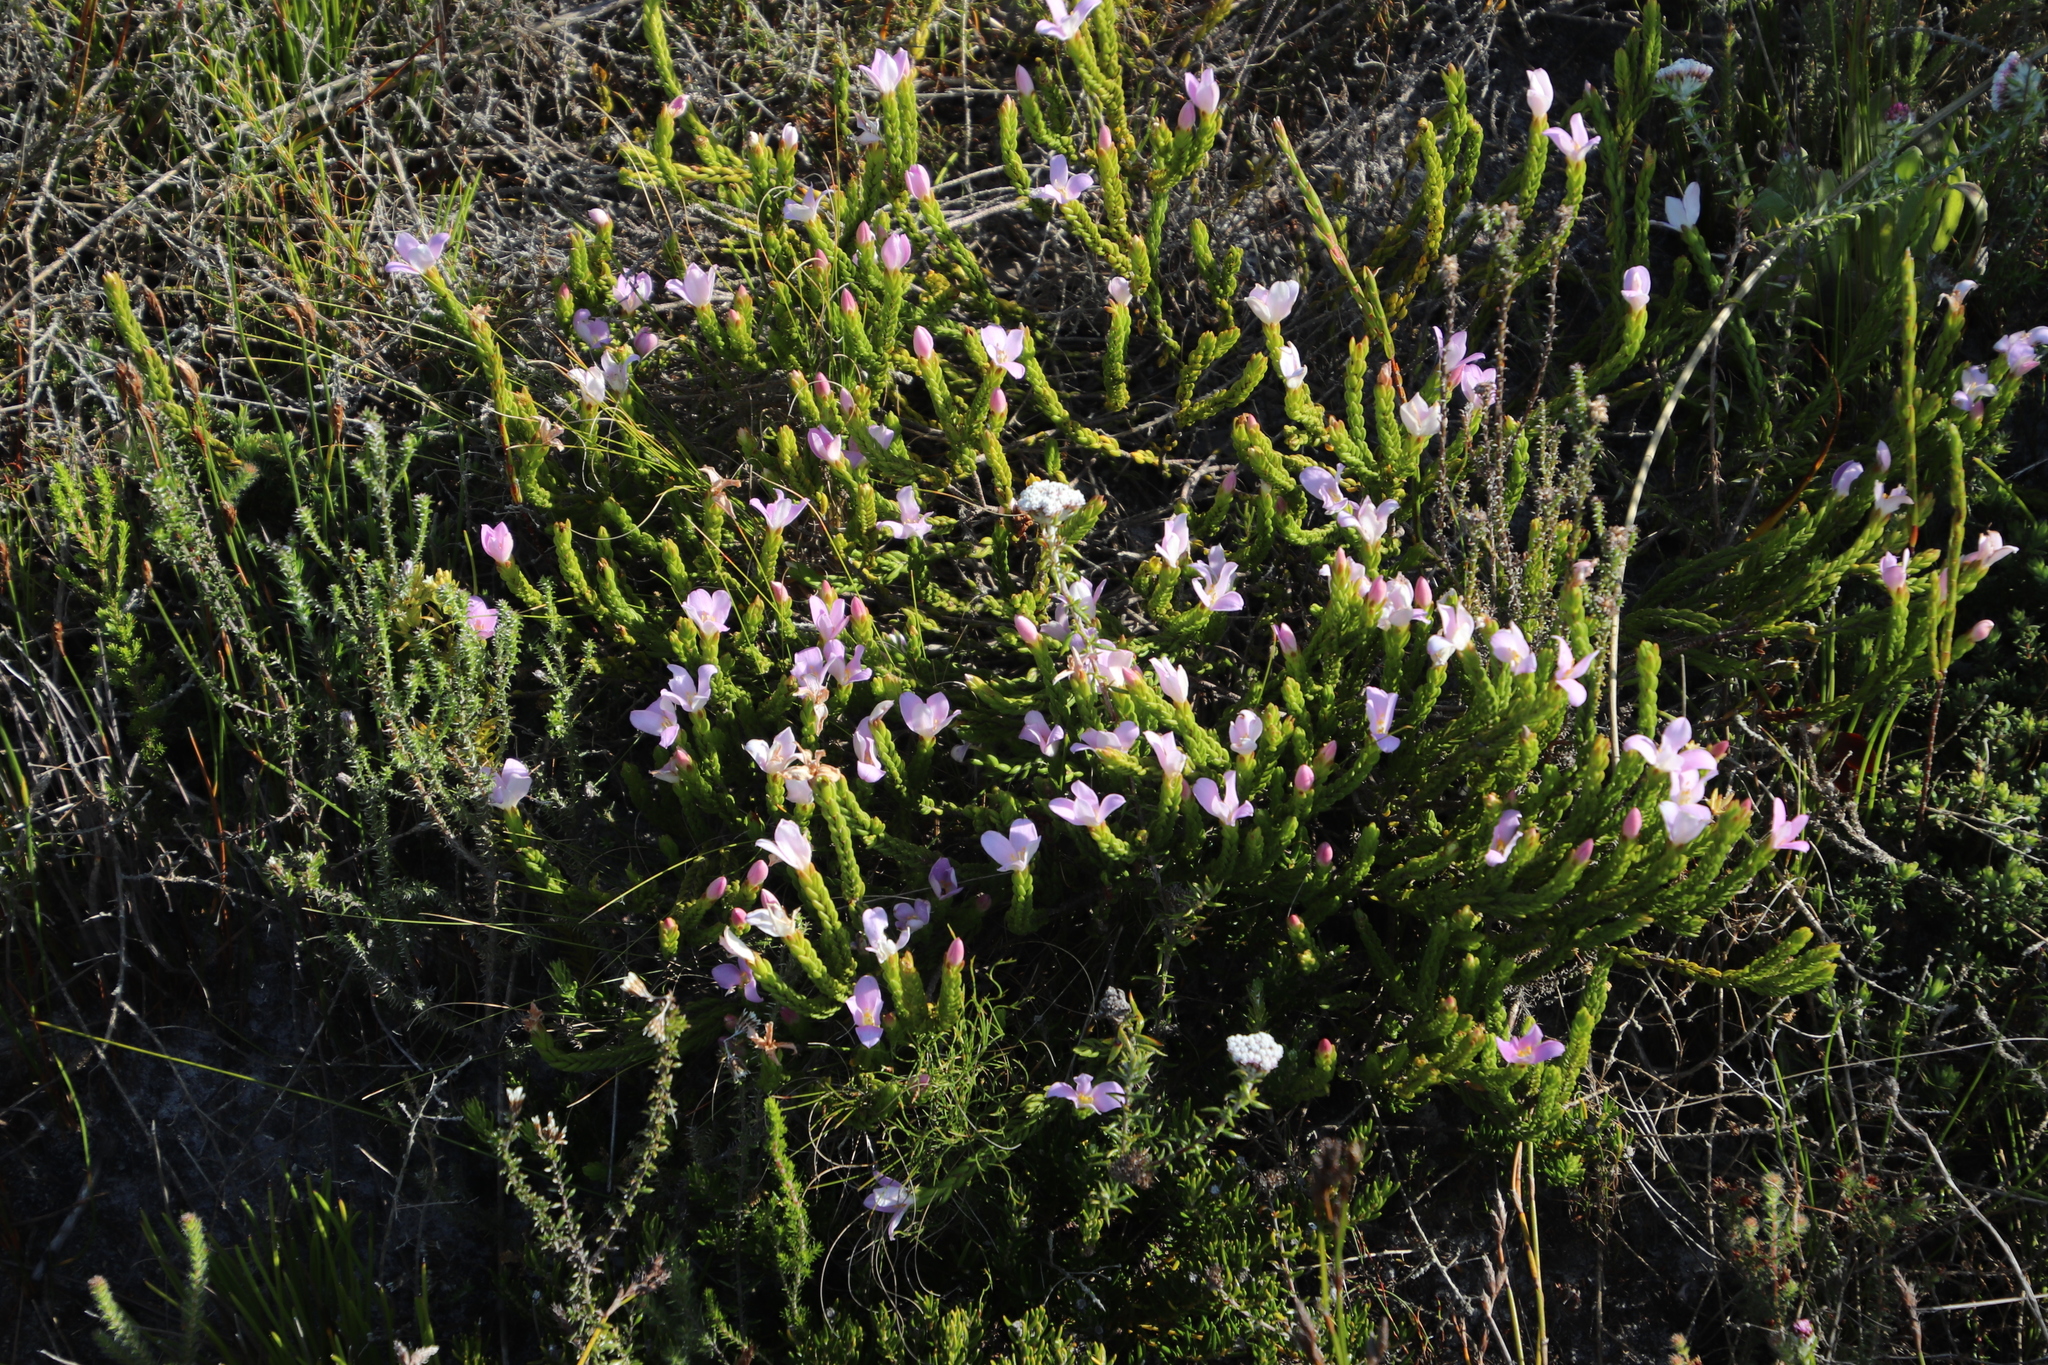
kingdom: Plantae
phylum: Tracheophyta
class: Magnoliopsida
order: Malvales
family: Thymelaeaceae
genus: Lachnaea
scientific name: Lachnaea grandiflora
